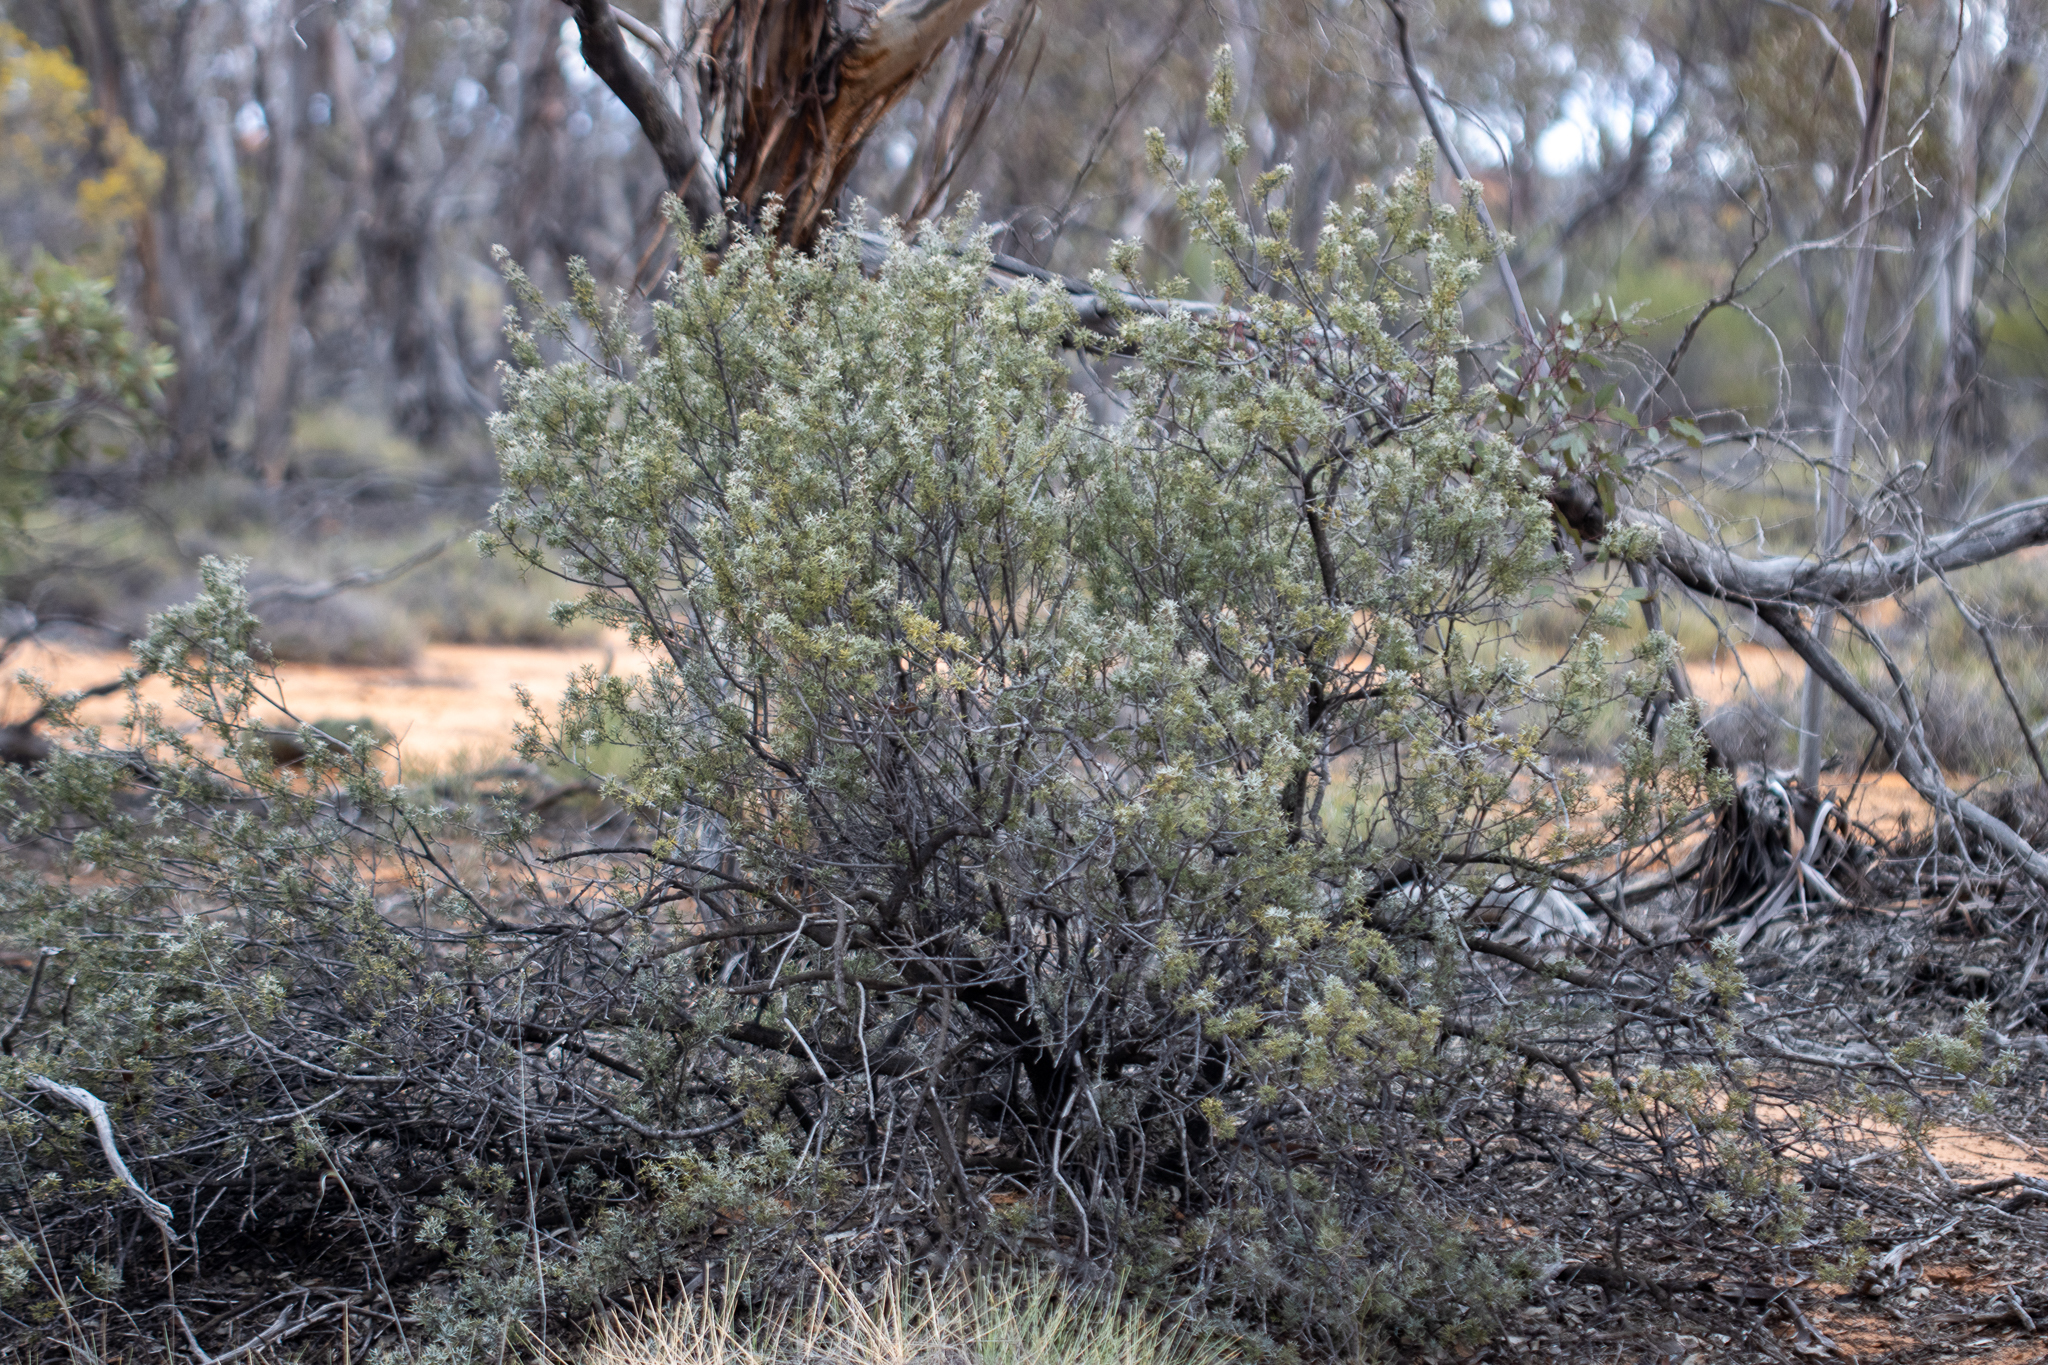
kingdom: Plantae
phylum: Tracheophyta
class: Magnoliopsida
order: Proteales
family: Proteaceae
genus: Grevillea
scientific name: Grevillea huegelii
